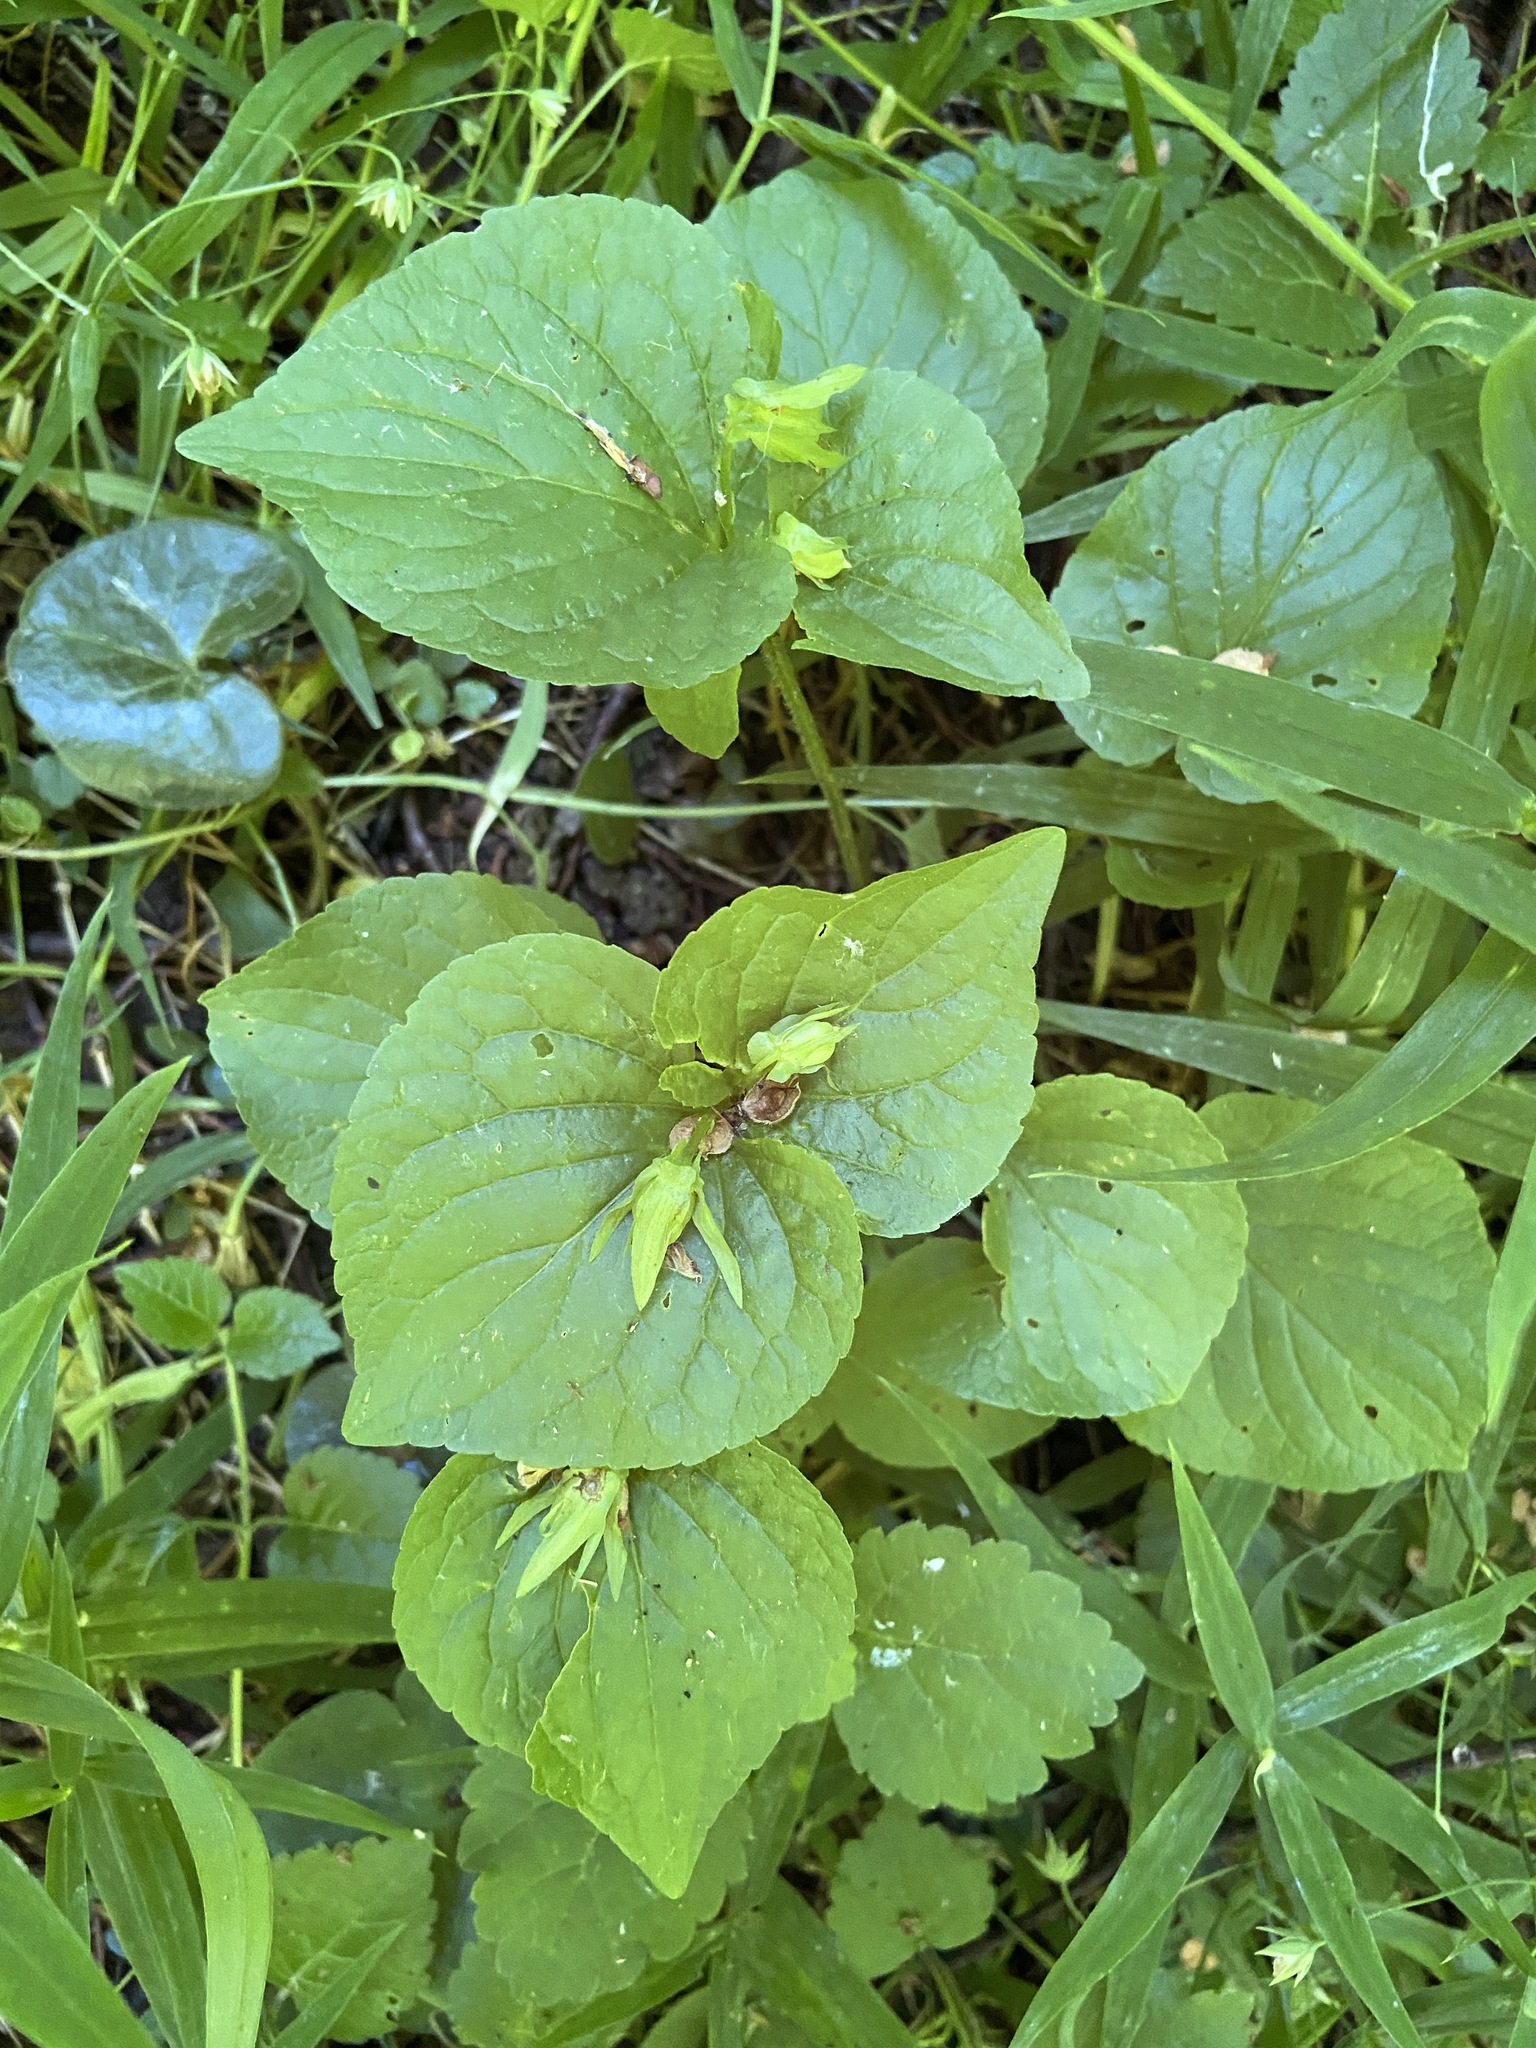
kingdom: Plantae
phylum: Tracheophyta
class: Magnoliopsida
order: Malpighiales
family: Violaceae
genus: Viola
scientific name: Viola mirabilis
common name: Wonder violet
